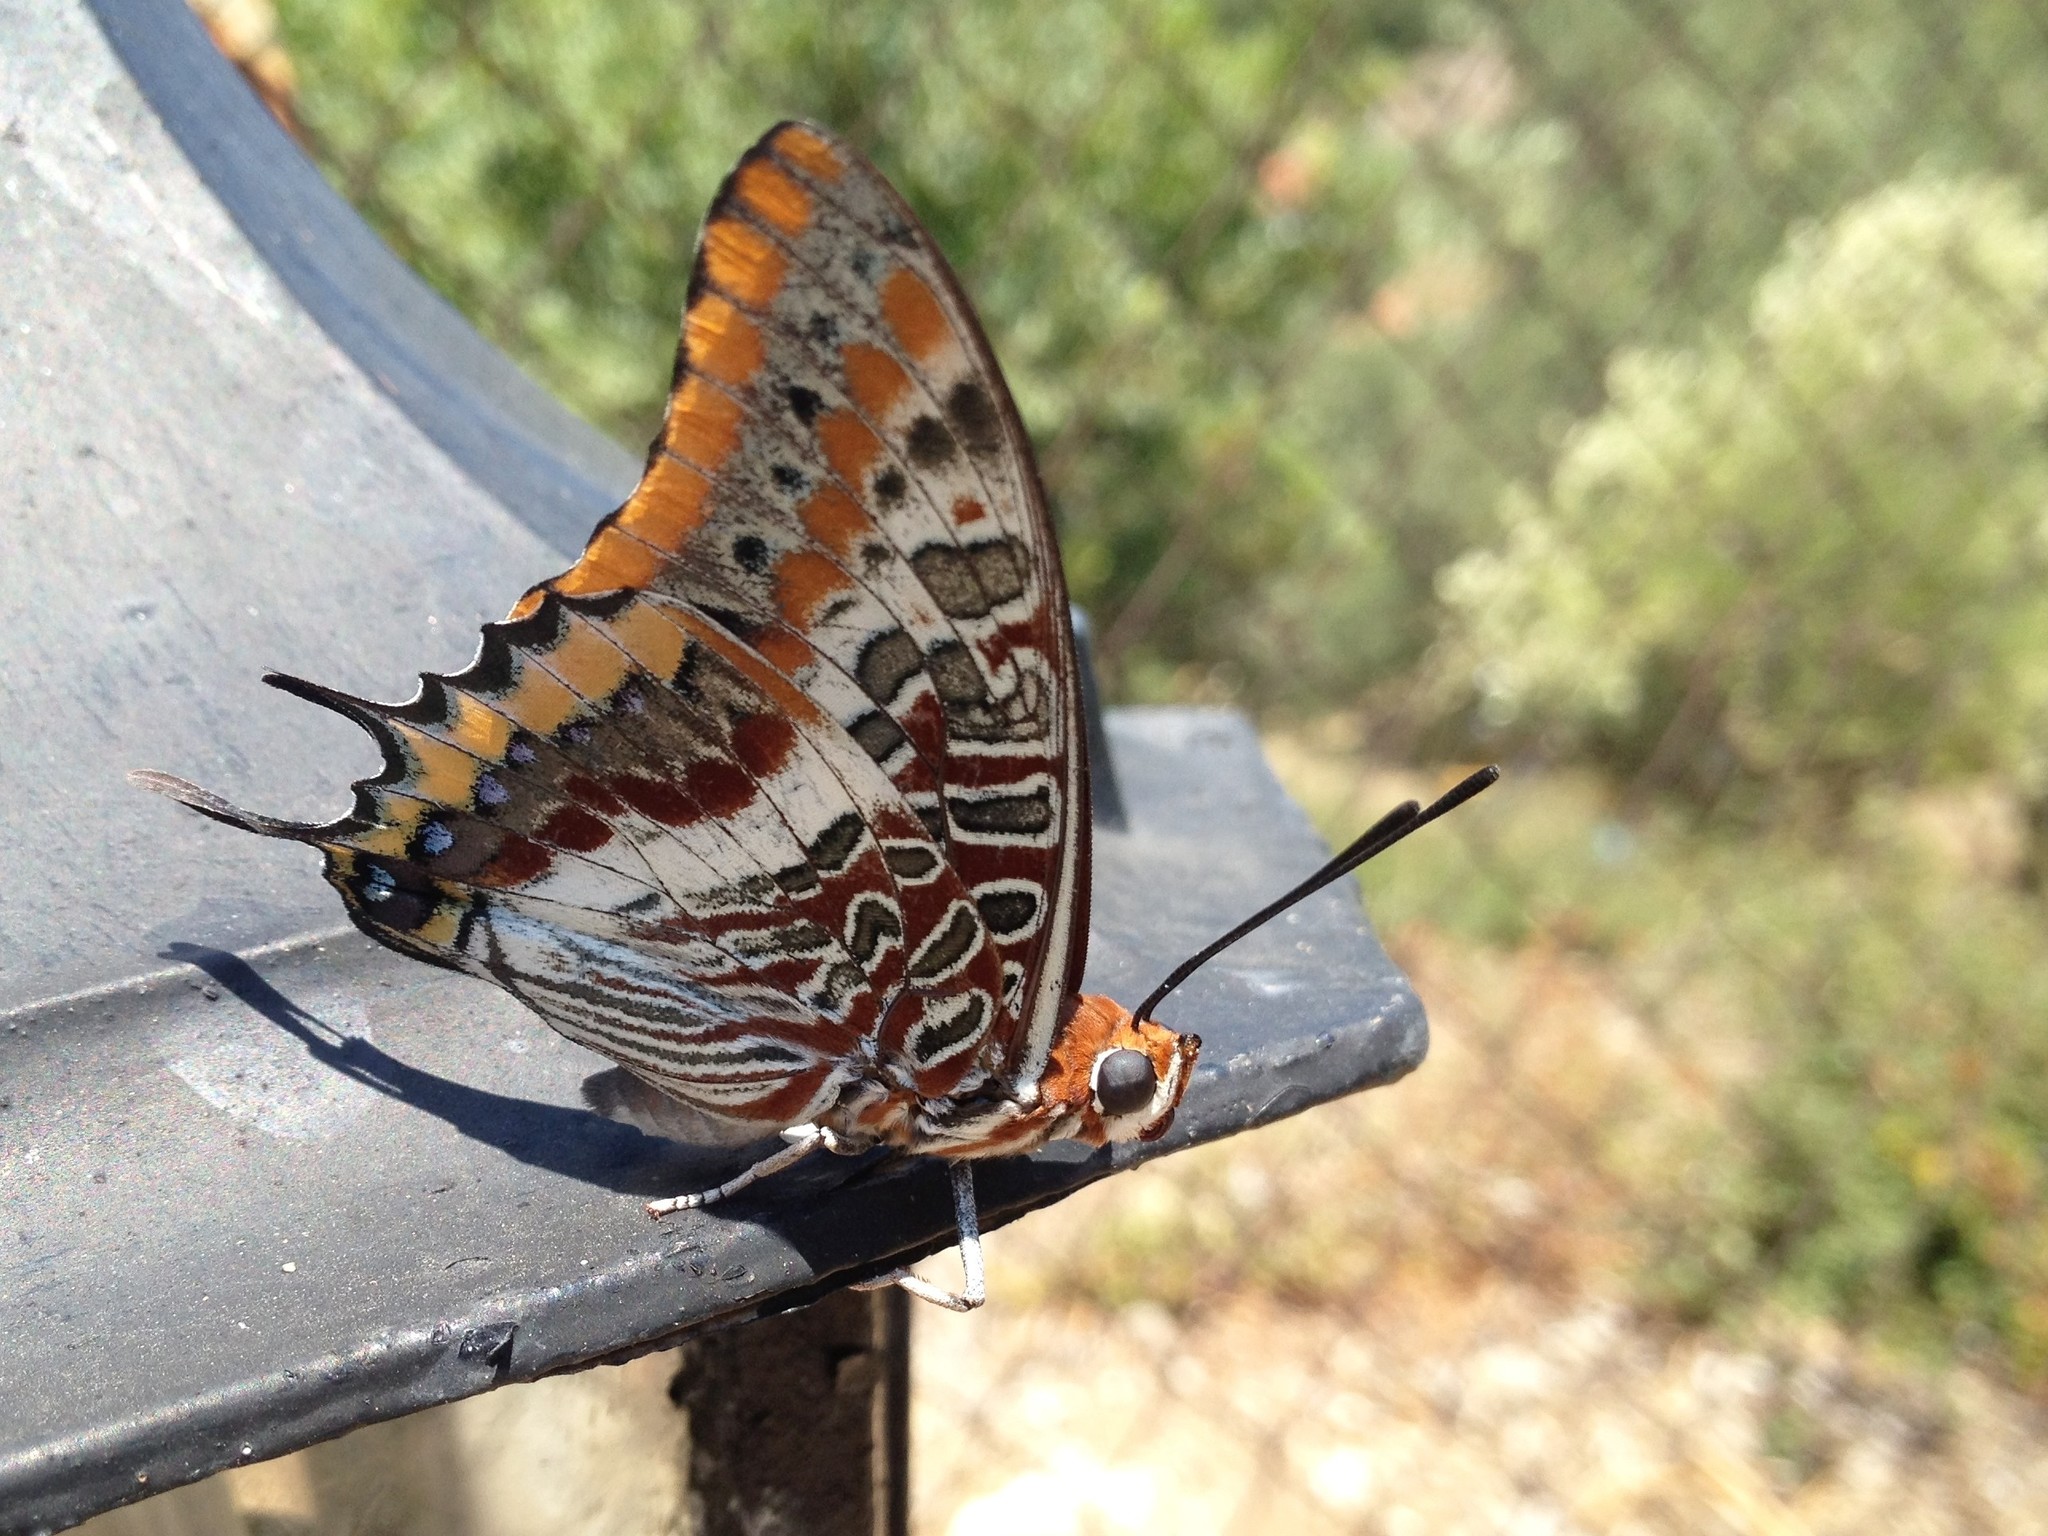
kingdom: Animalia
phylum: Arthropoda
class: Insecta
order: Lepidoptera
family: Nymphalidae
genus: Charaxes
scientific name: Charaxes jasius
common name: Two tailed pasha
